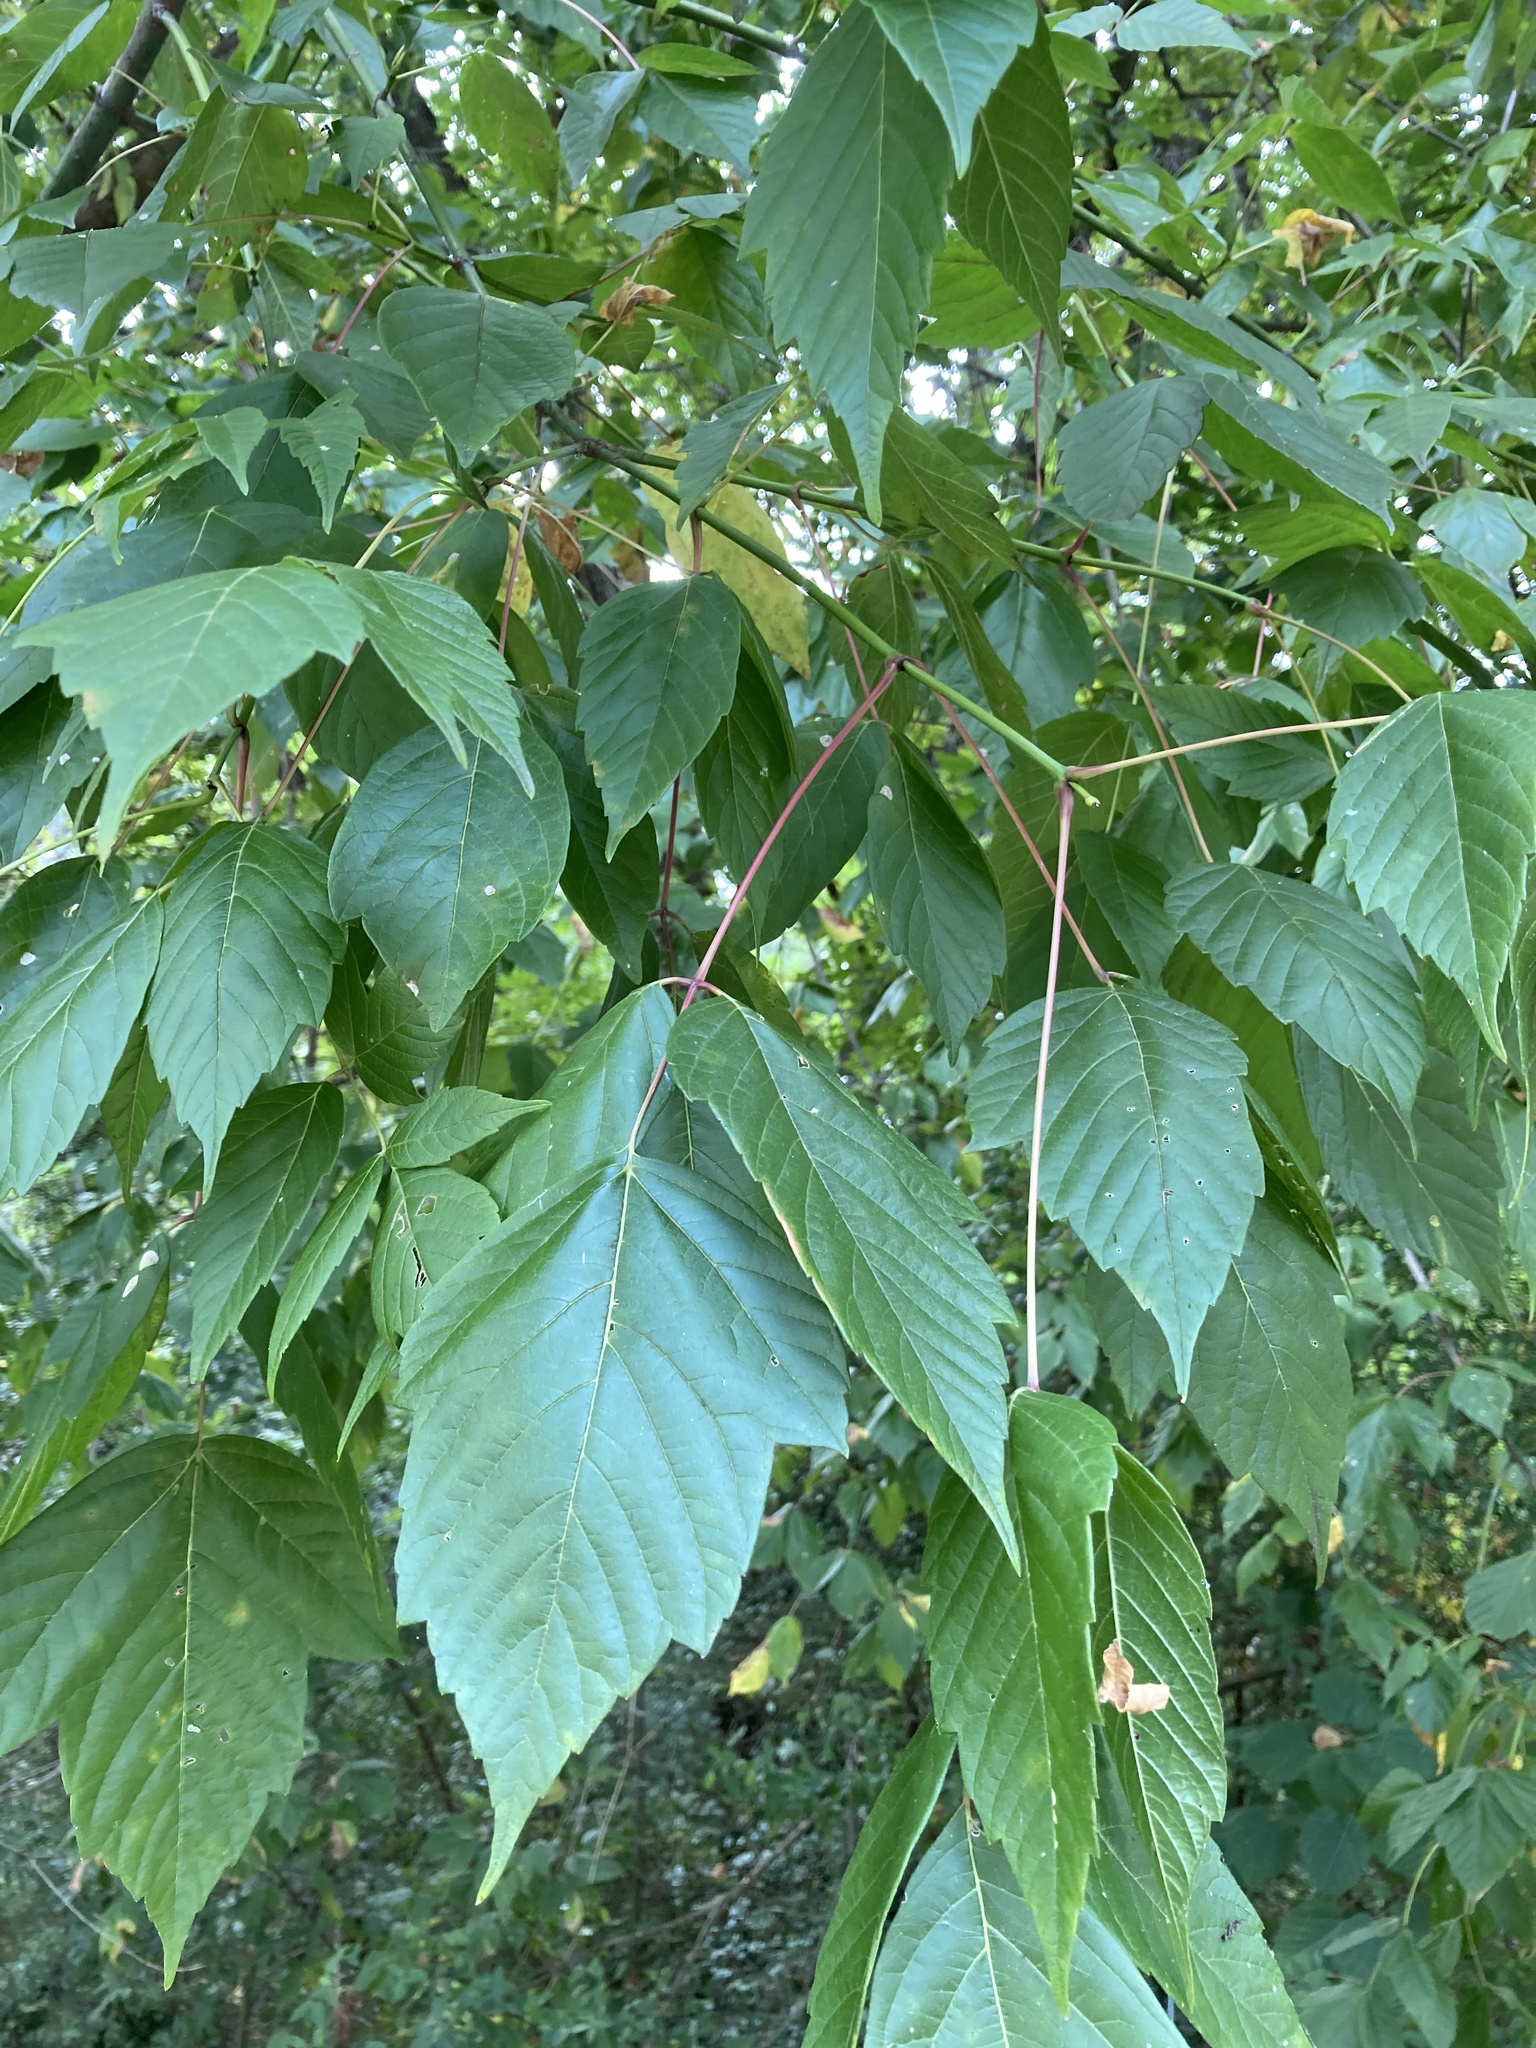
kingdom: Plantae
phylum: Tracheophyta
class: Magnoliopsida
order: Sapindales
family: Sapindaceae
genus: Acer
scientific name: Acer negundo
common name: Ashleaf maple
